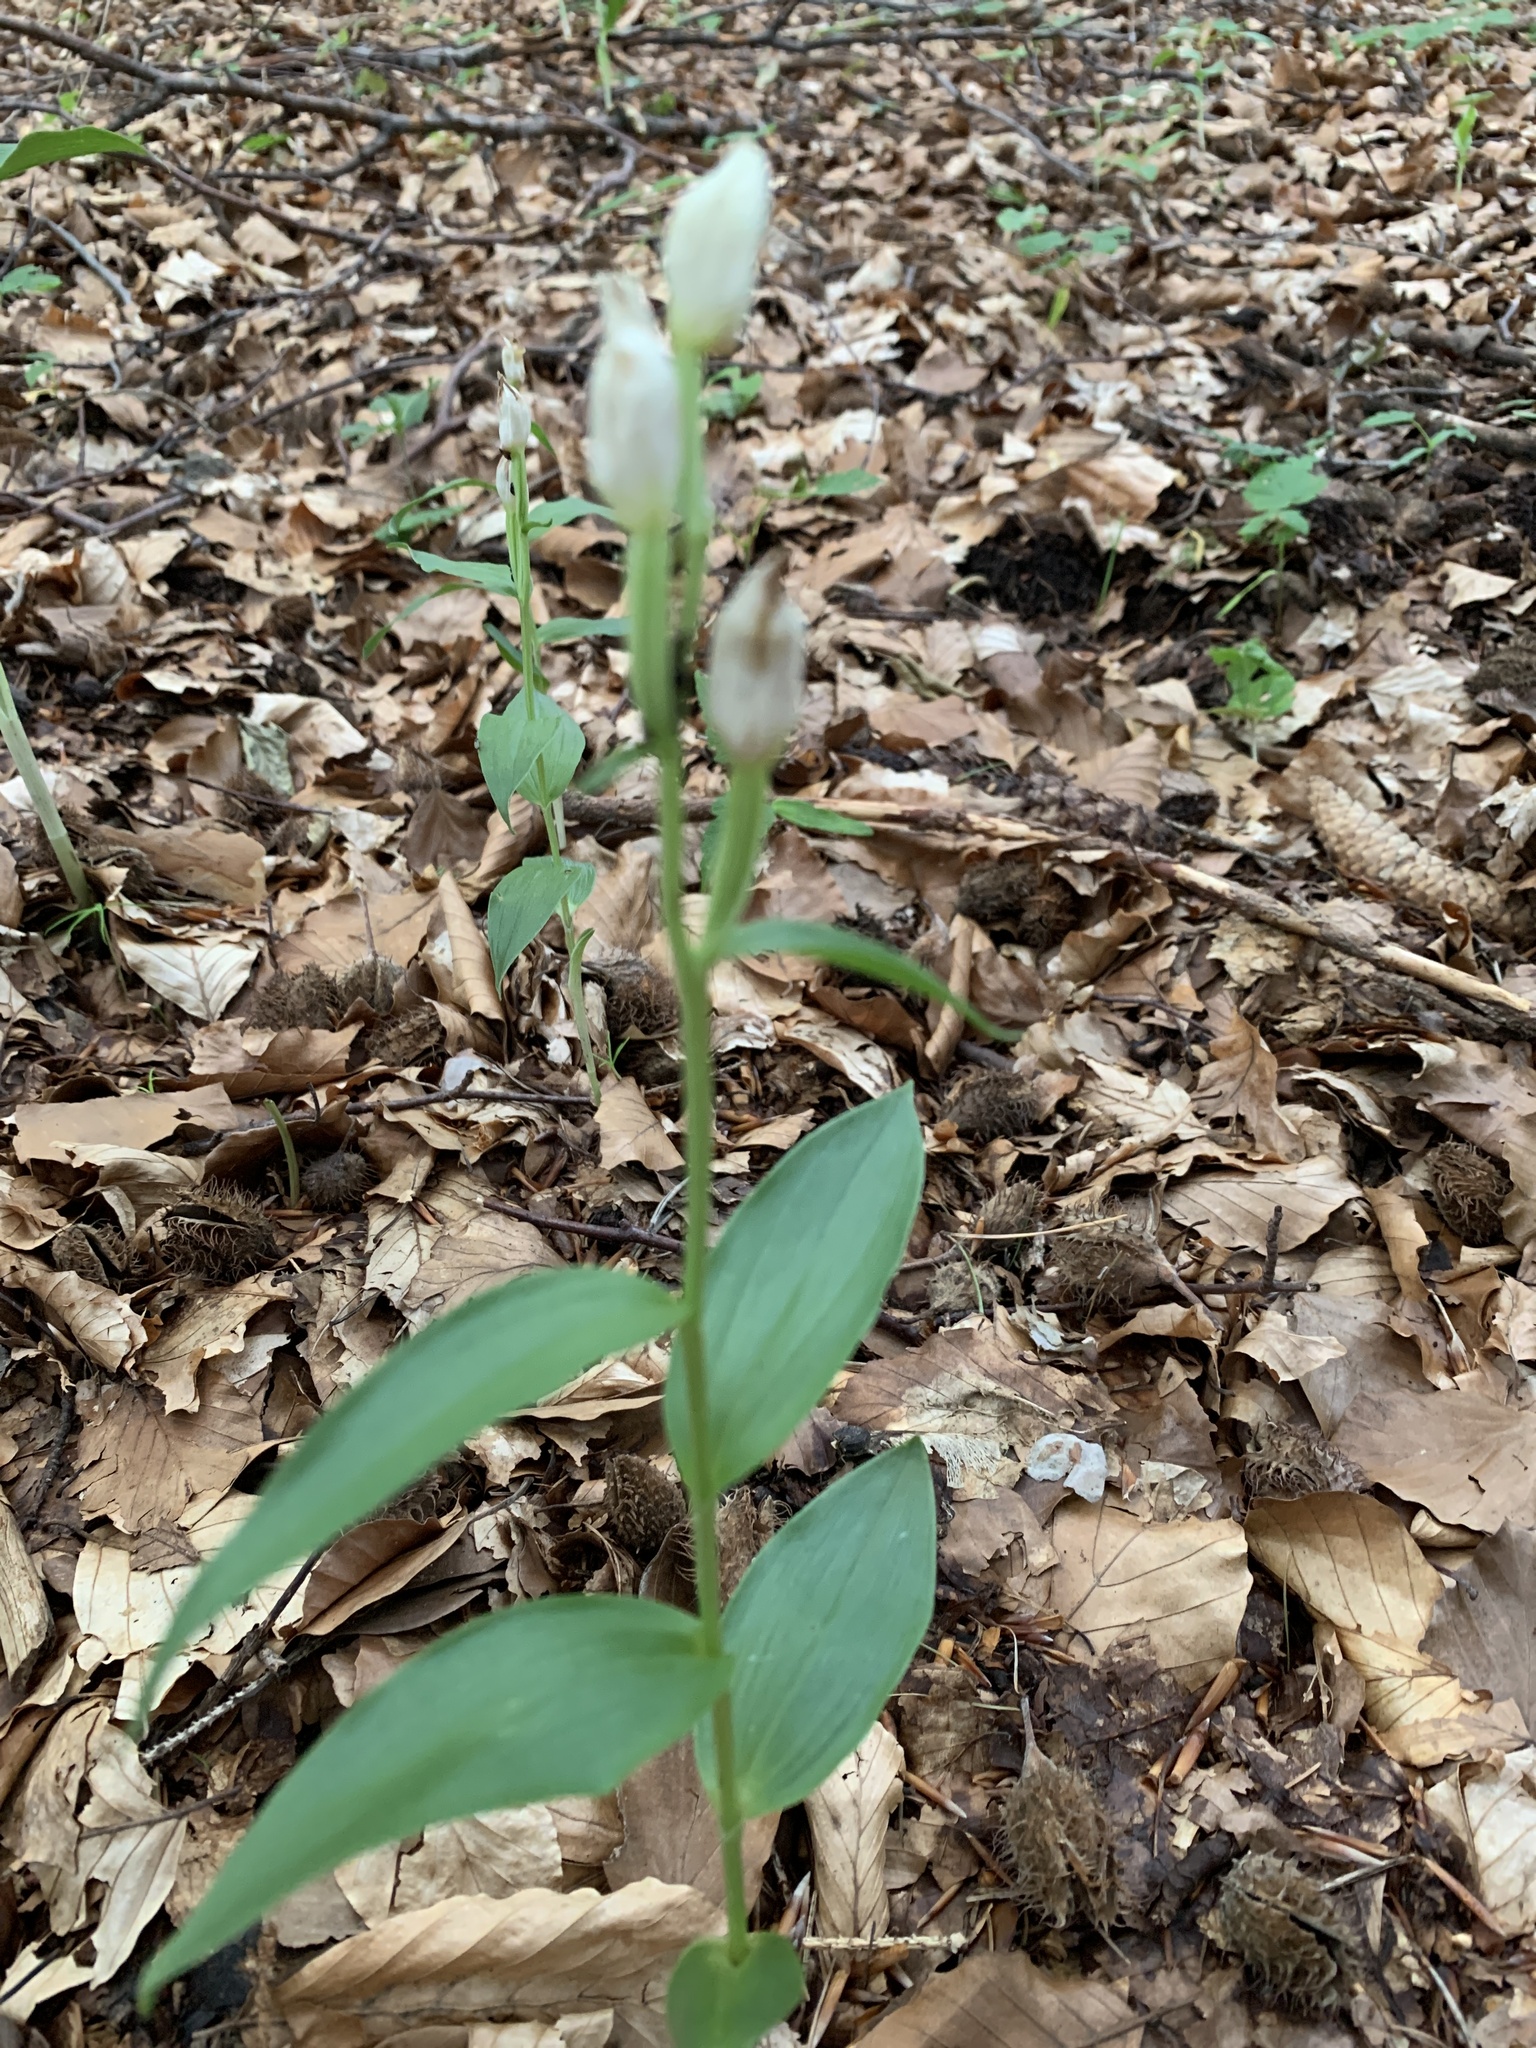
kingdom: Plantae
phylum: Tracheophyta
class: Liliopsida
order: Asparagales
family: Orchidaceae
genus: Cephalanthera
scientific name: Cephalanthera damasonium
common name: White helleborine
